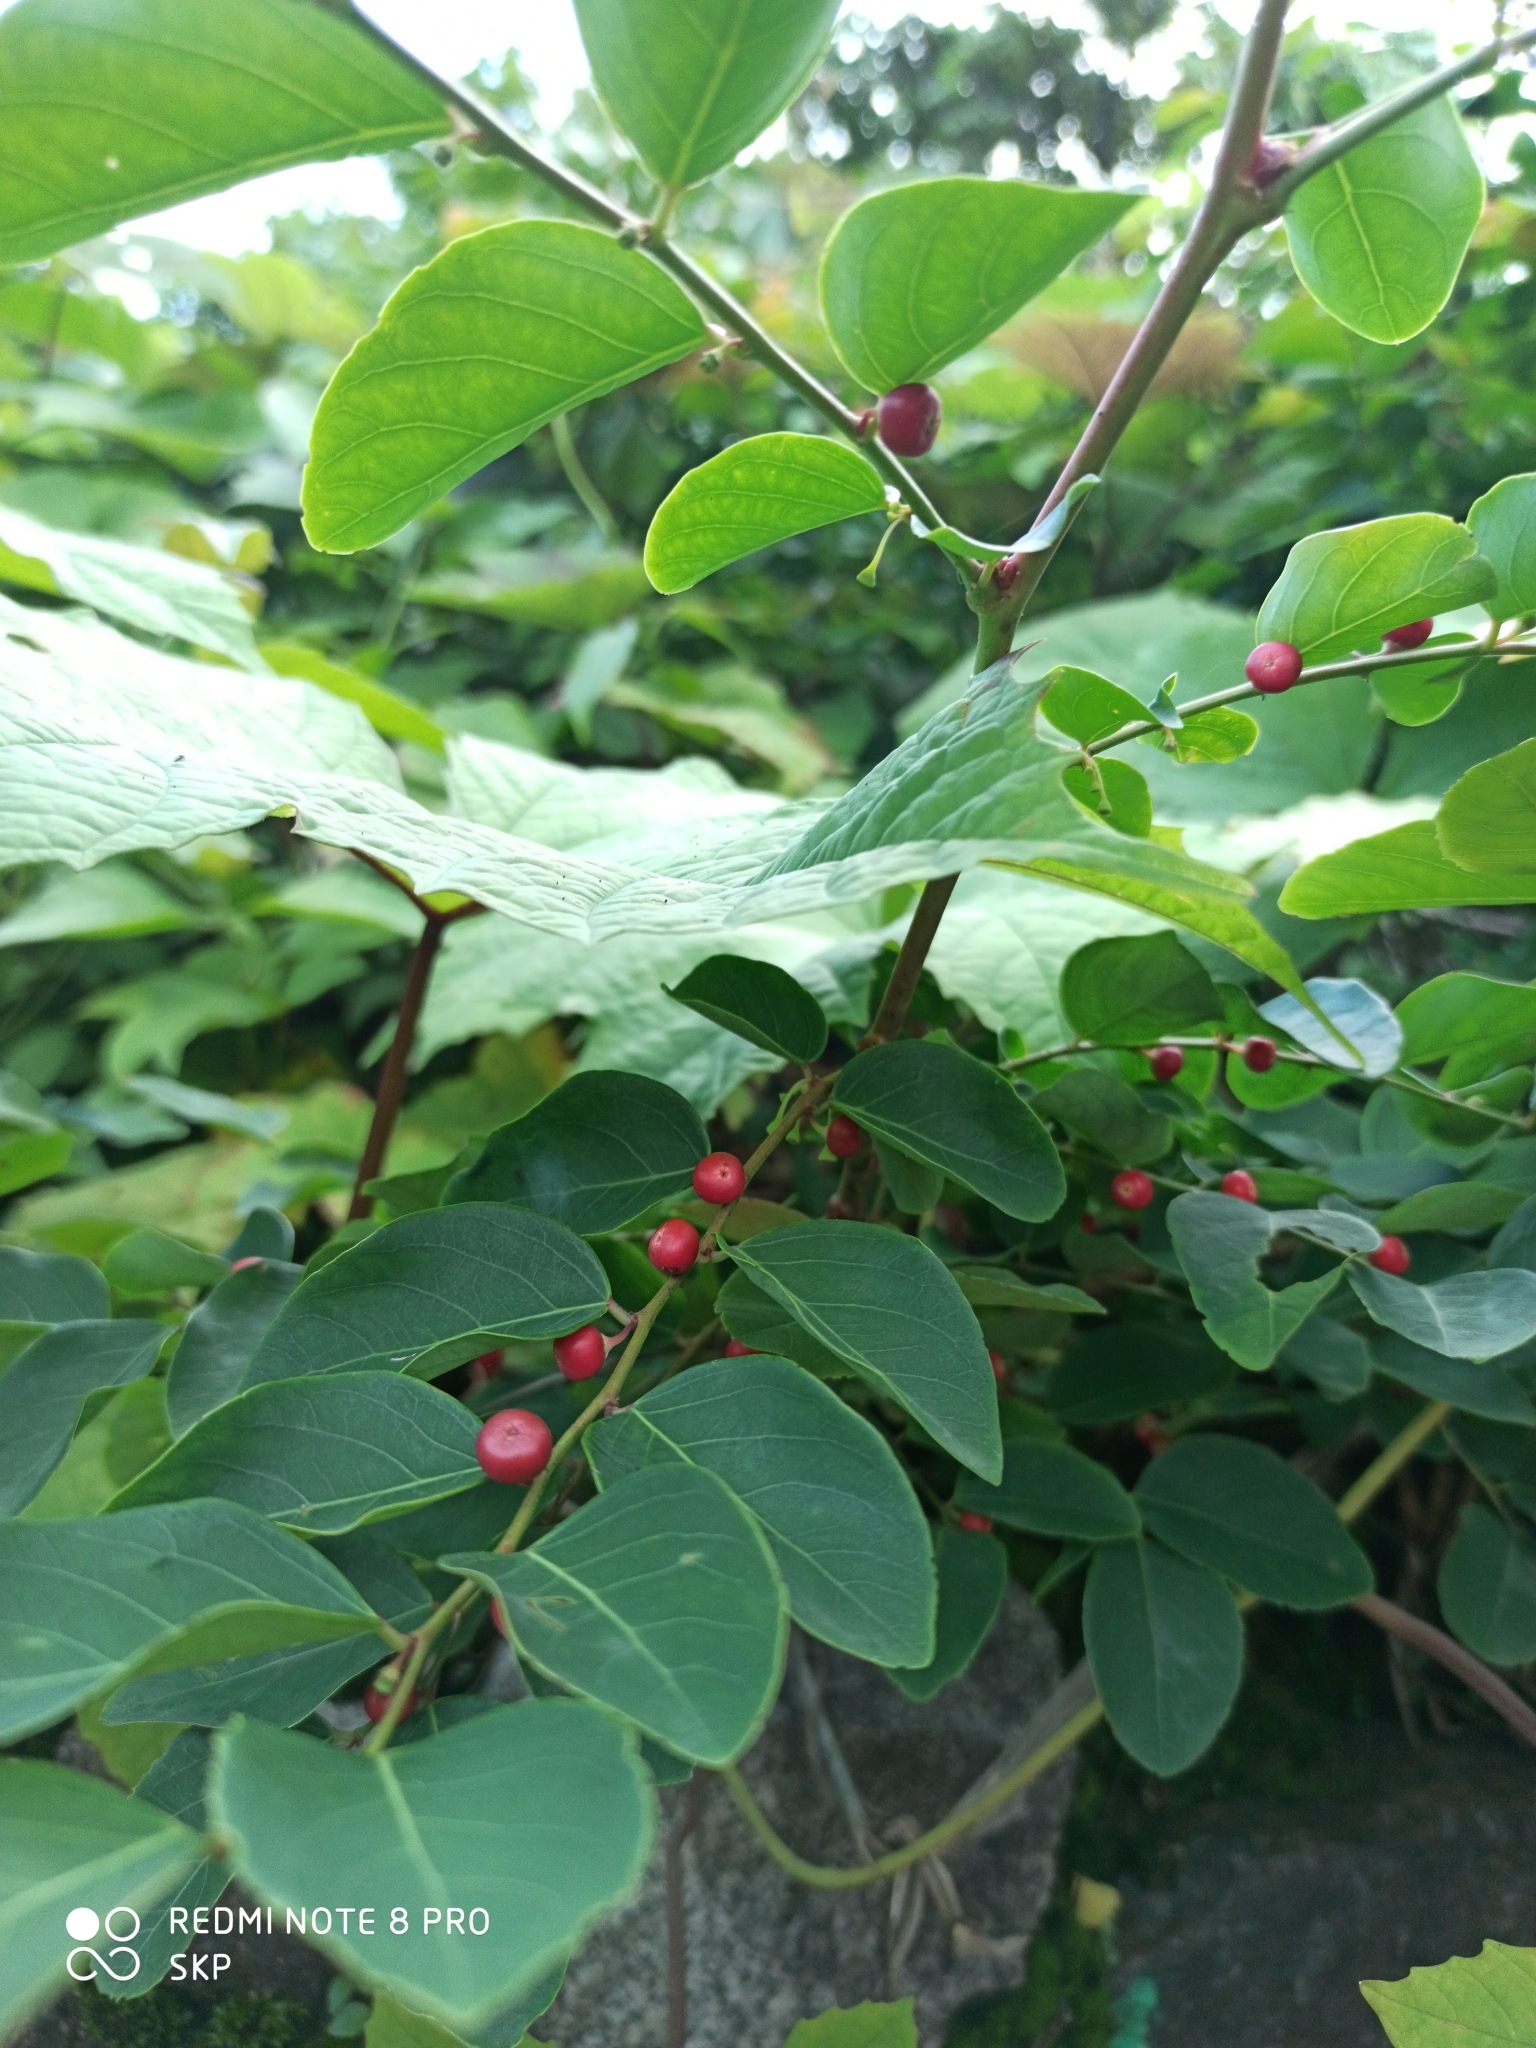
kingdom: Plantae
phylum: Tracheophyta
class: Magnoliopsida
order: Malpighiales
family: Phyllanthaceae
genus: Breynia
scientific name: Breynia vitis-idaea
